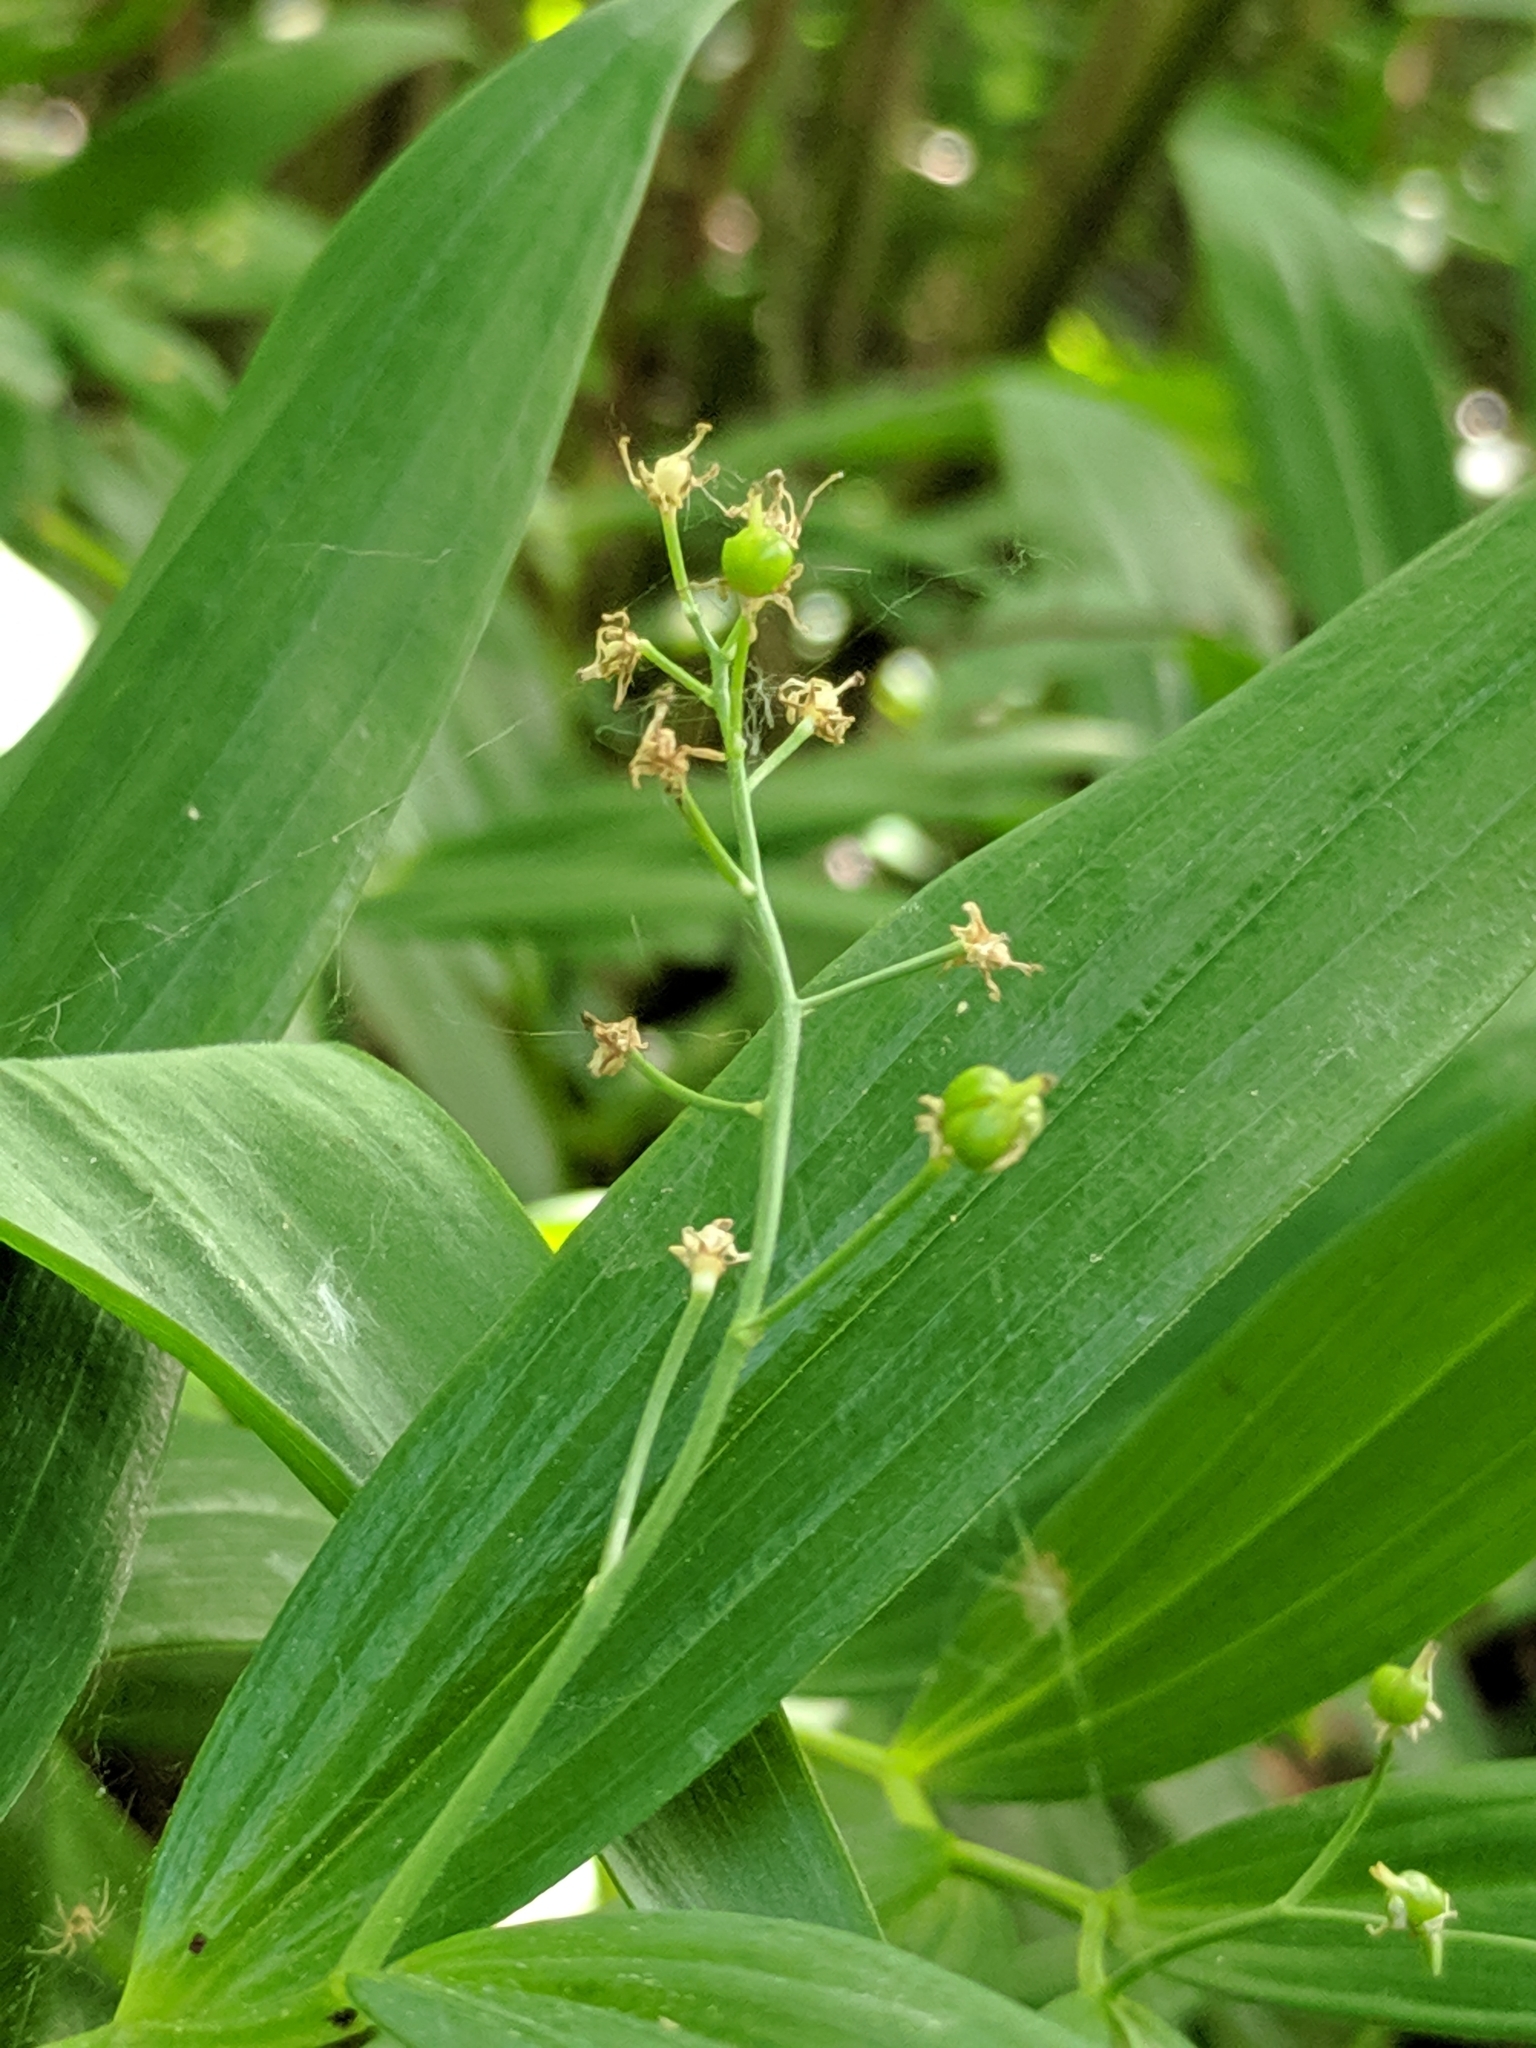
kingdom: Plantae
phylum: Tracheophyta
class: Liliopsida
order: Asparagales
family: Asparagaceae
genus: Maianthemum
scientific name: Maianthemum stellatum
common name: Little false solomon's seal
